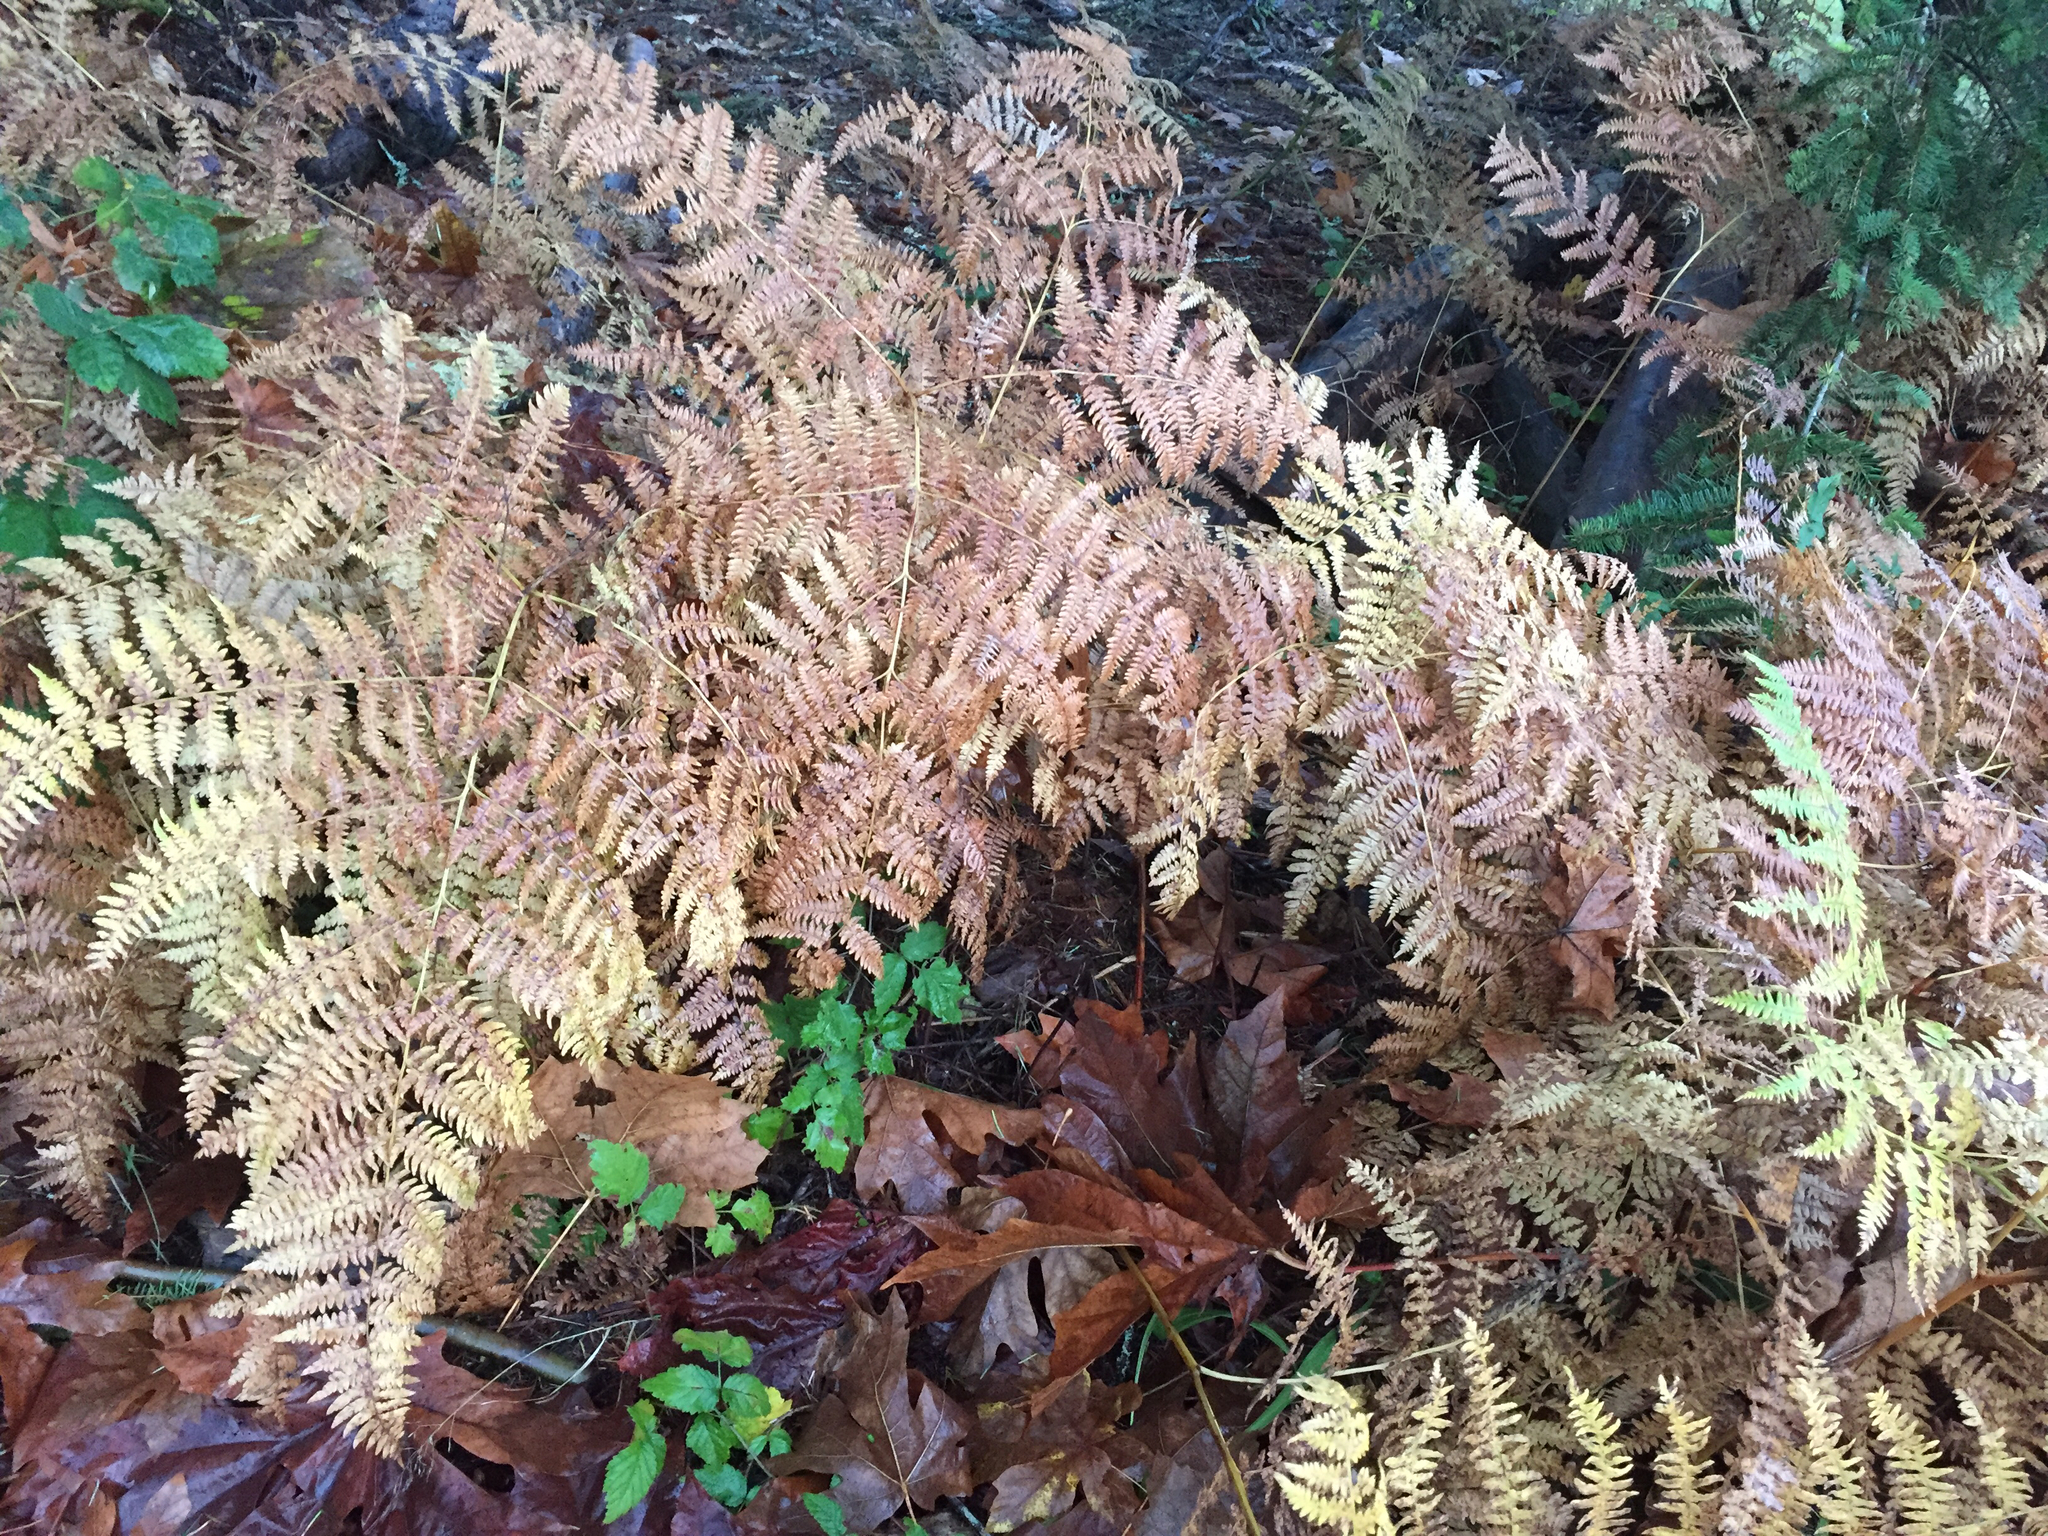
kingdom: Plantae
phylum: Tracheophyta
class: Polypodiopsida
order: Polypodiales
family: Dennstaedtiaceae
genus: Pteridium
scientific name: Pteridium aquilinum
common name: Bracken
